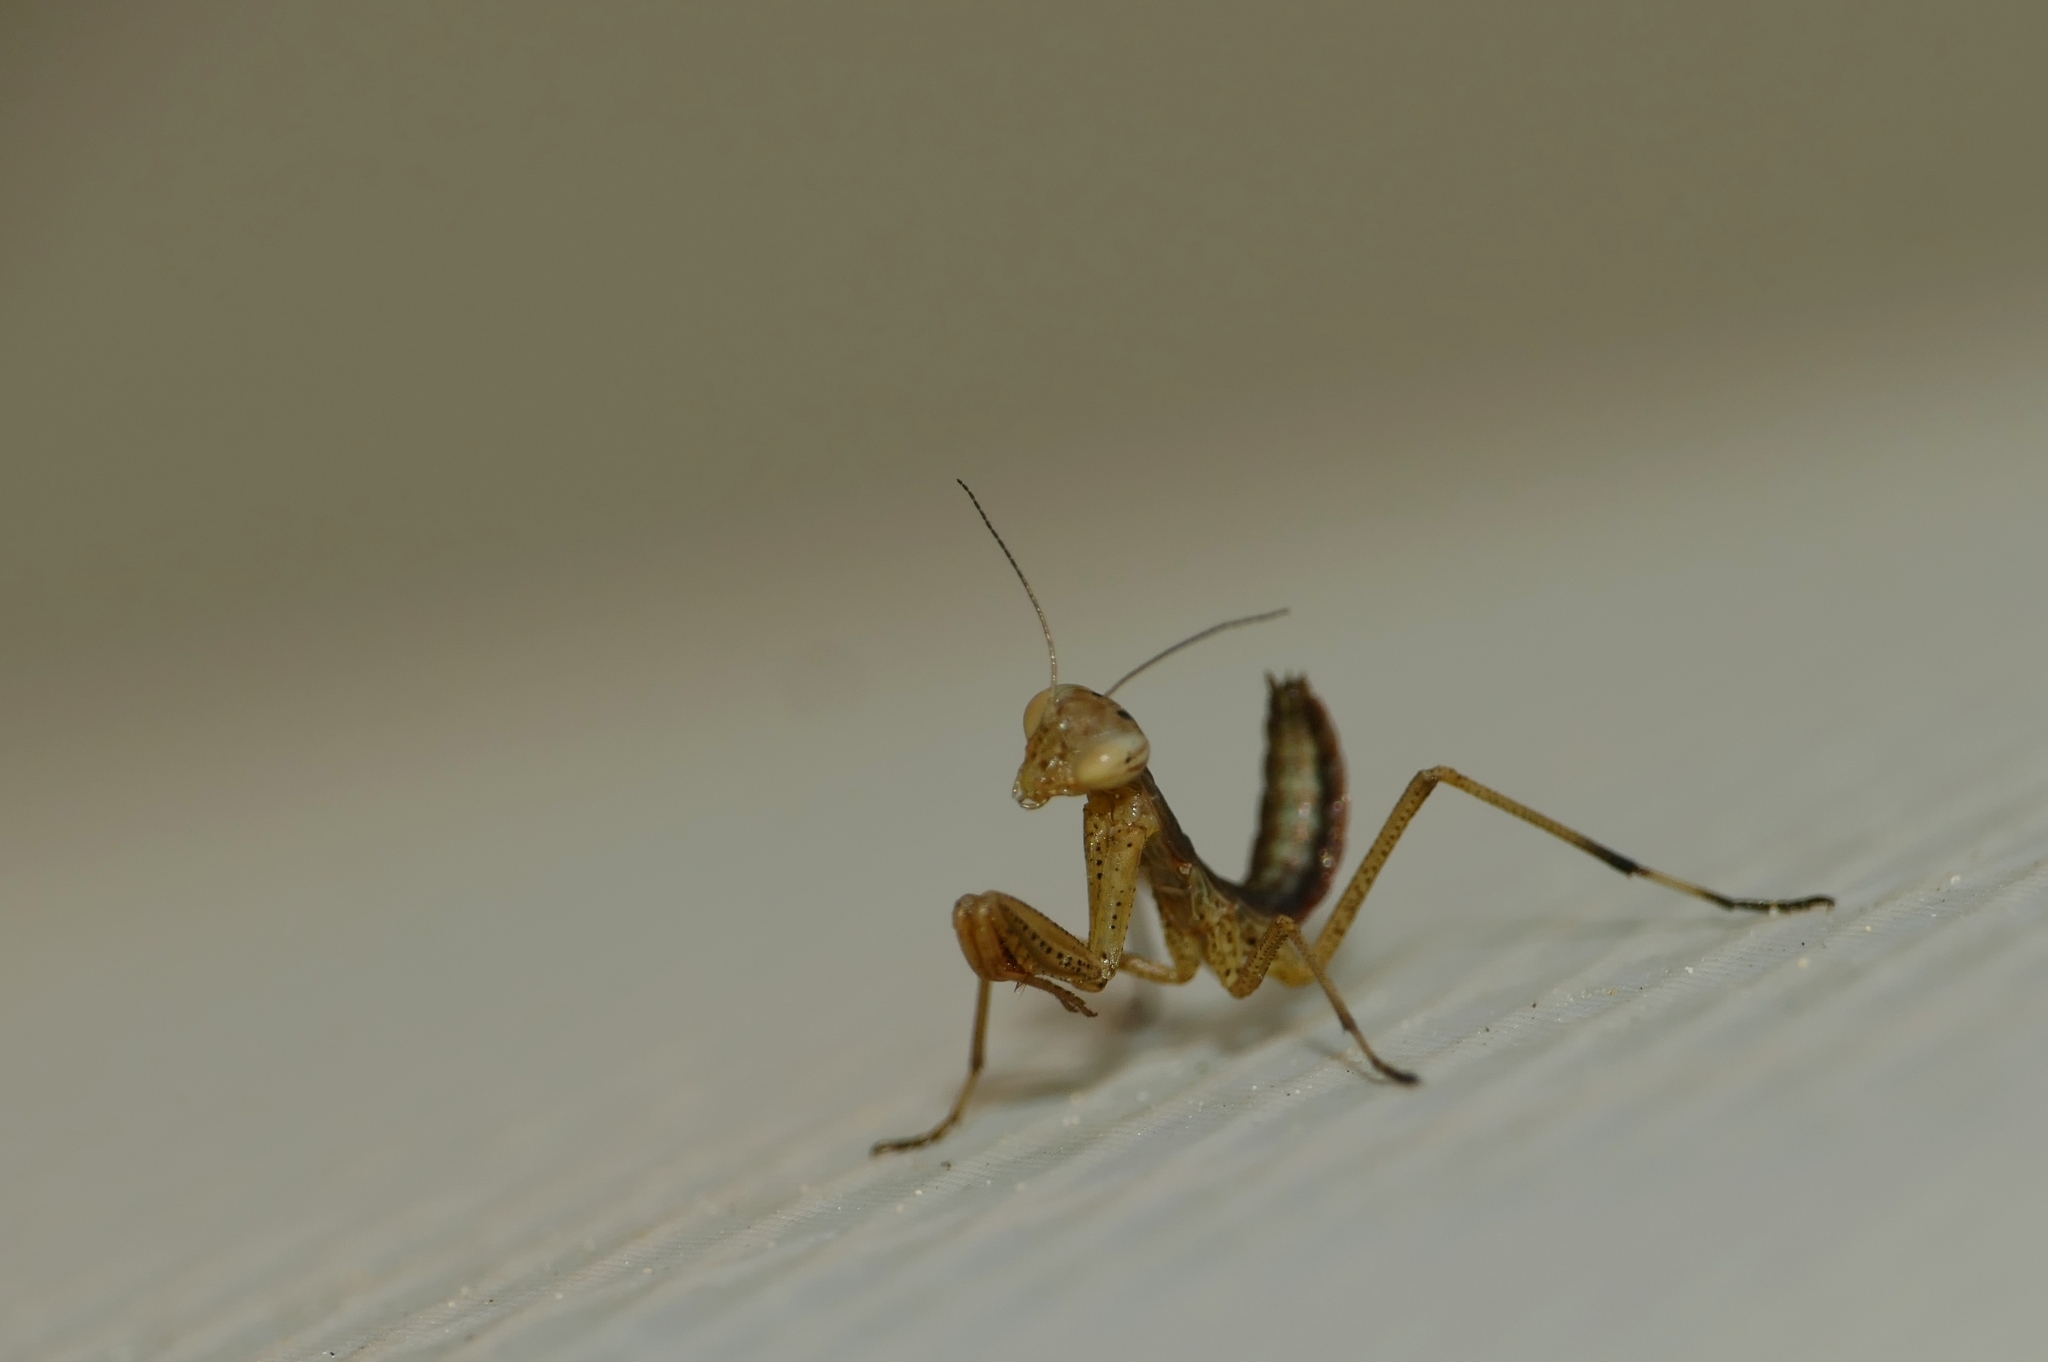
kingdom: Animalia
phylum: Arthropoda
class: Insecta
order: Mantodea
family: Mantidae
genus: Mantis
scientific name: Mantis religiosa
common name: Praying mantis
